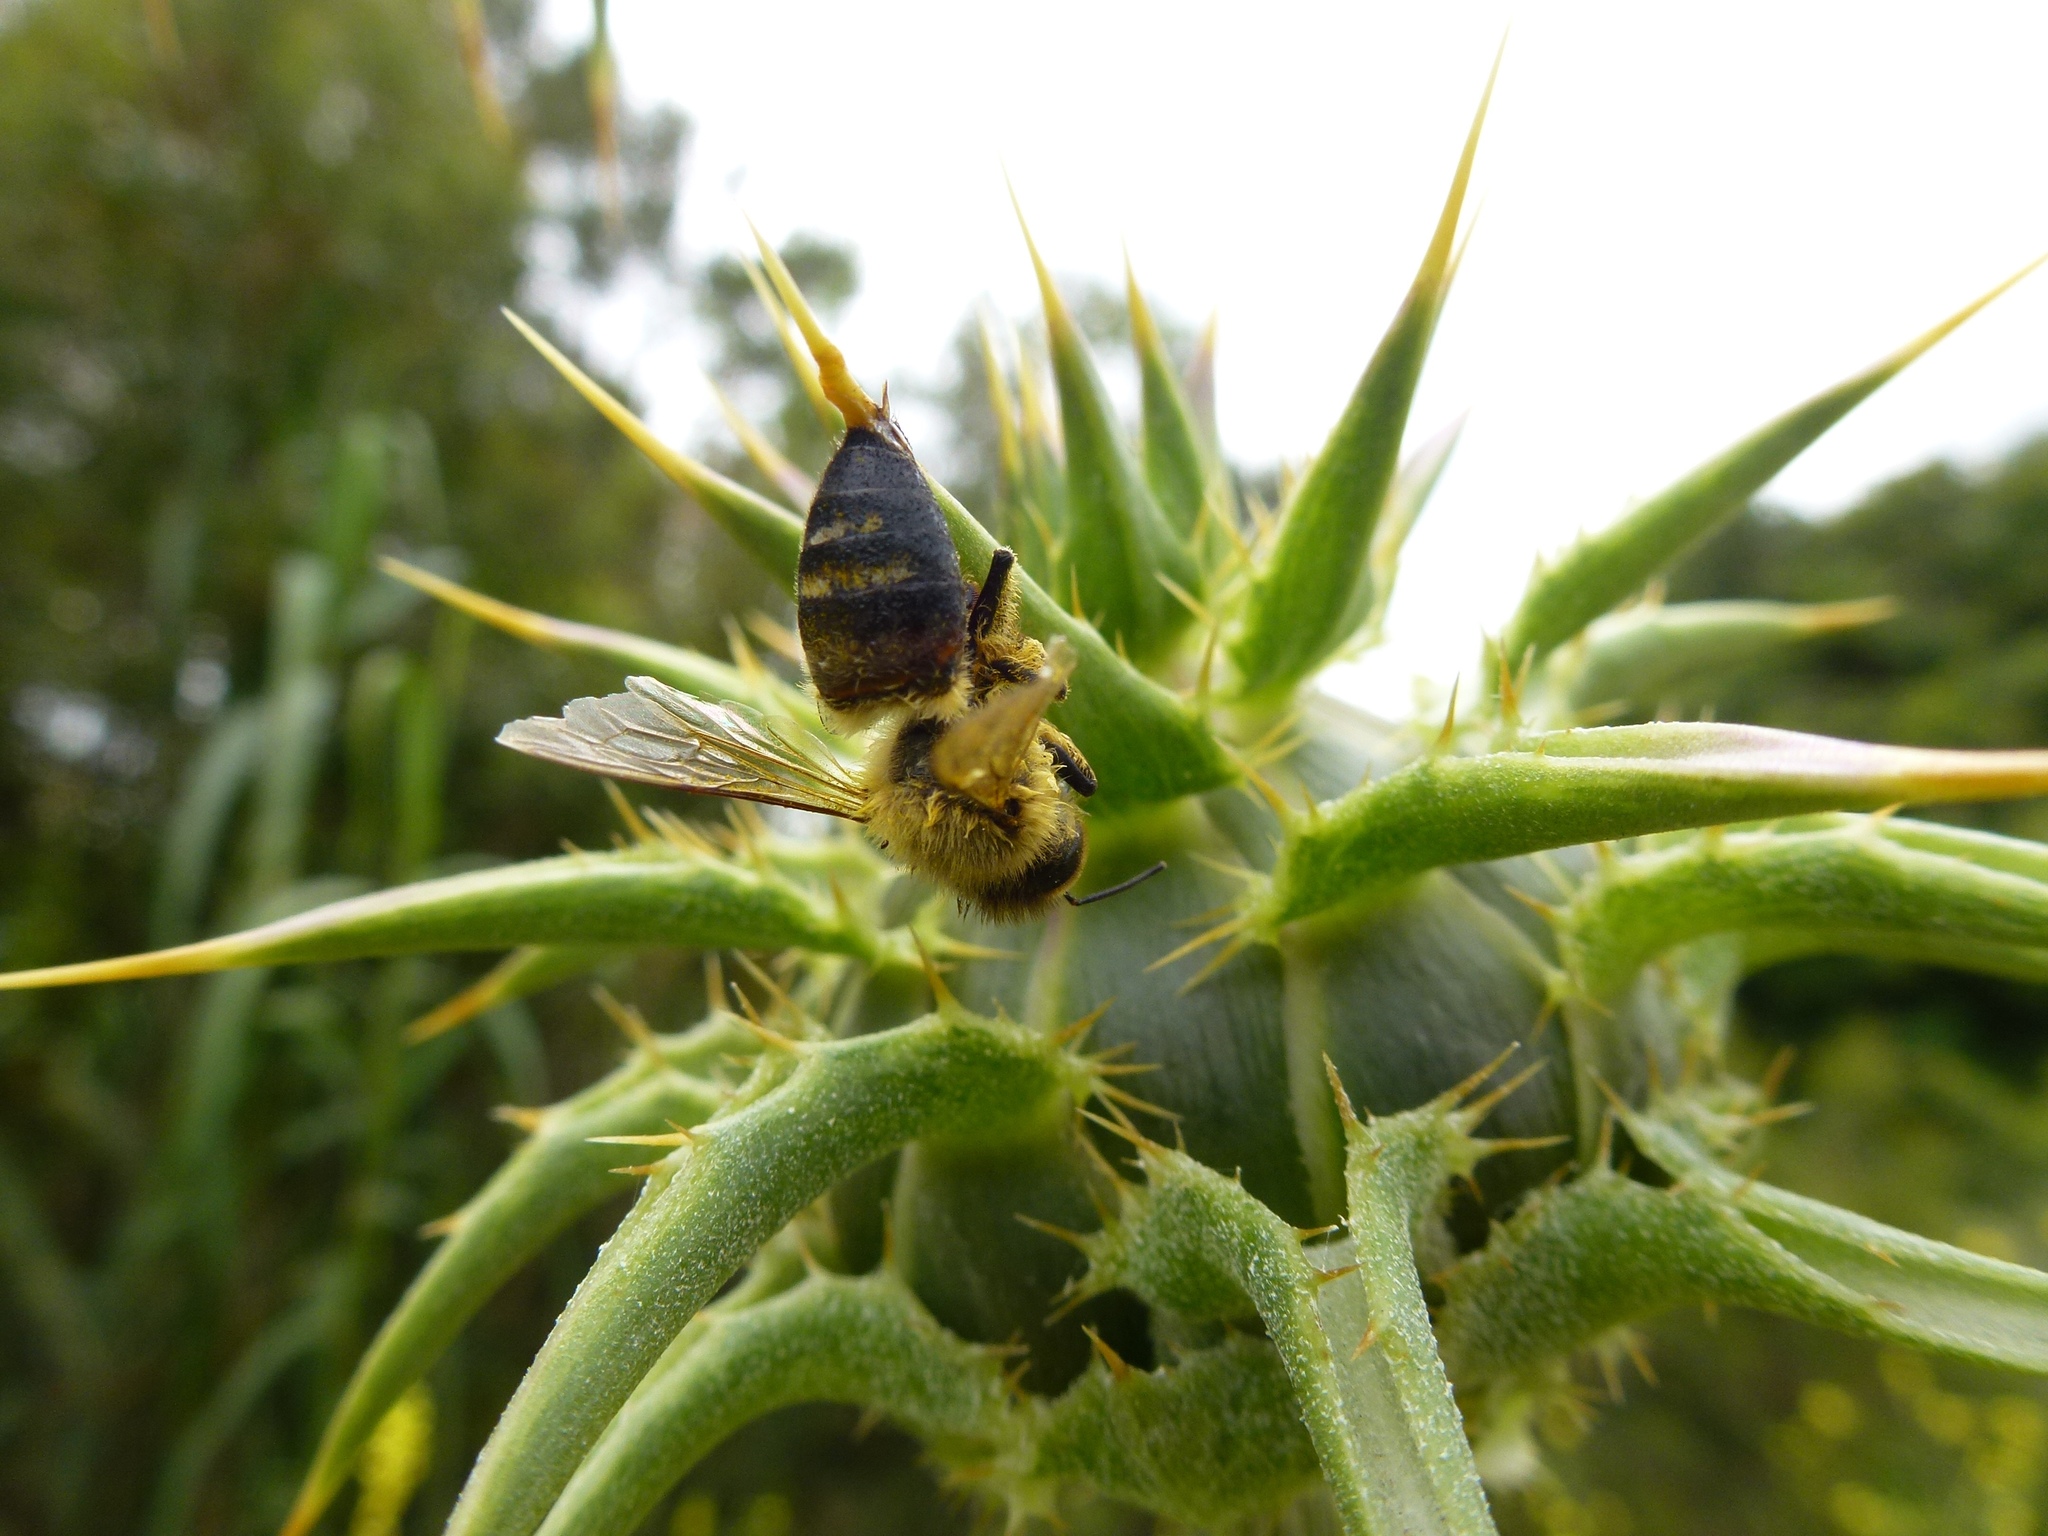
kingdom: Animalia
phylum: Arthropoda
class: Insecta
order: Hymenoptera
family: Apidae
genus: Apis
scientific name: Apis mellifera
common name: Honey bee
